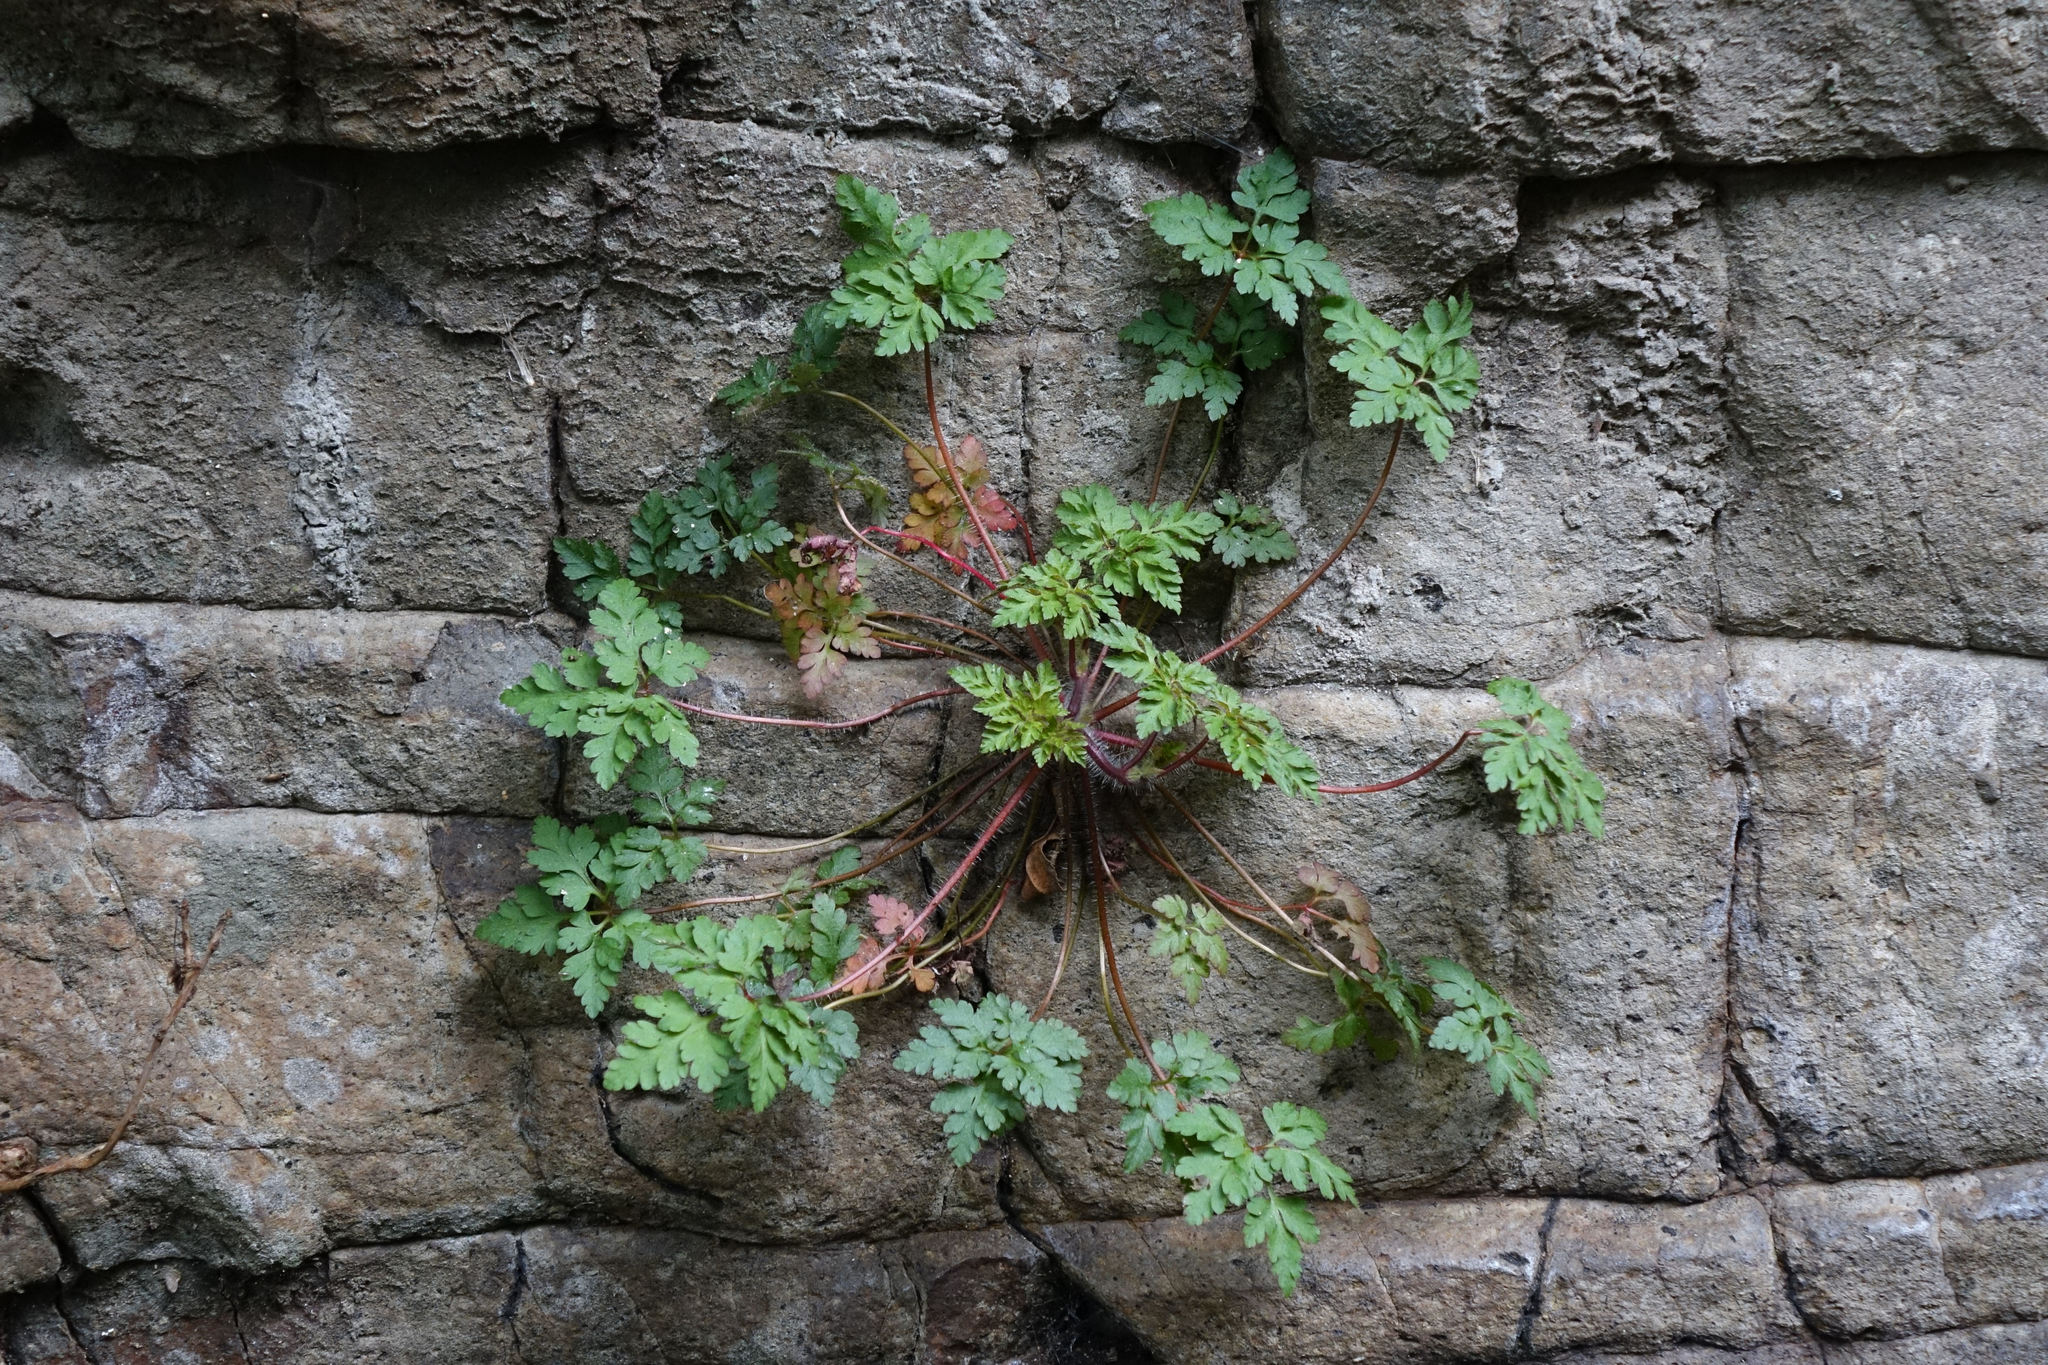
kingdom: Plantae
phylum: Tracheophyta
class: Magnoliopsida
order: Geraniales
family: Geraniaceae
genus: Geranium
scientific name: Geranium robertianum
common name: Herb-robert
